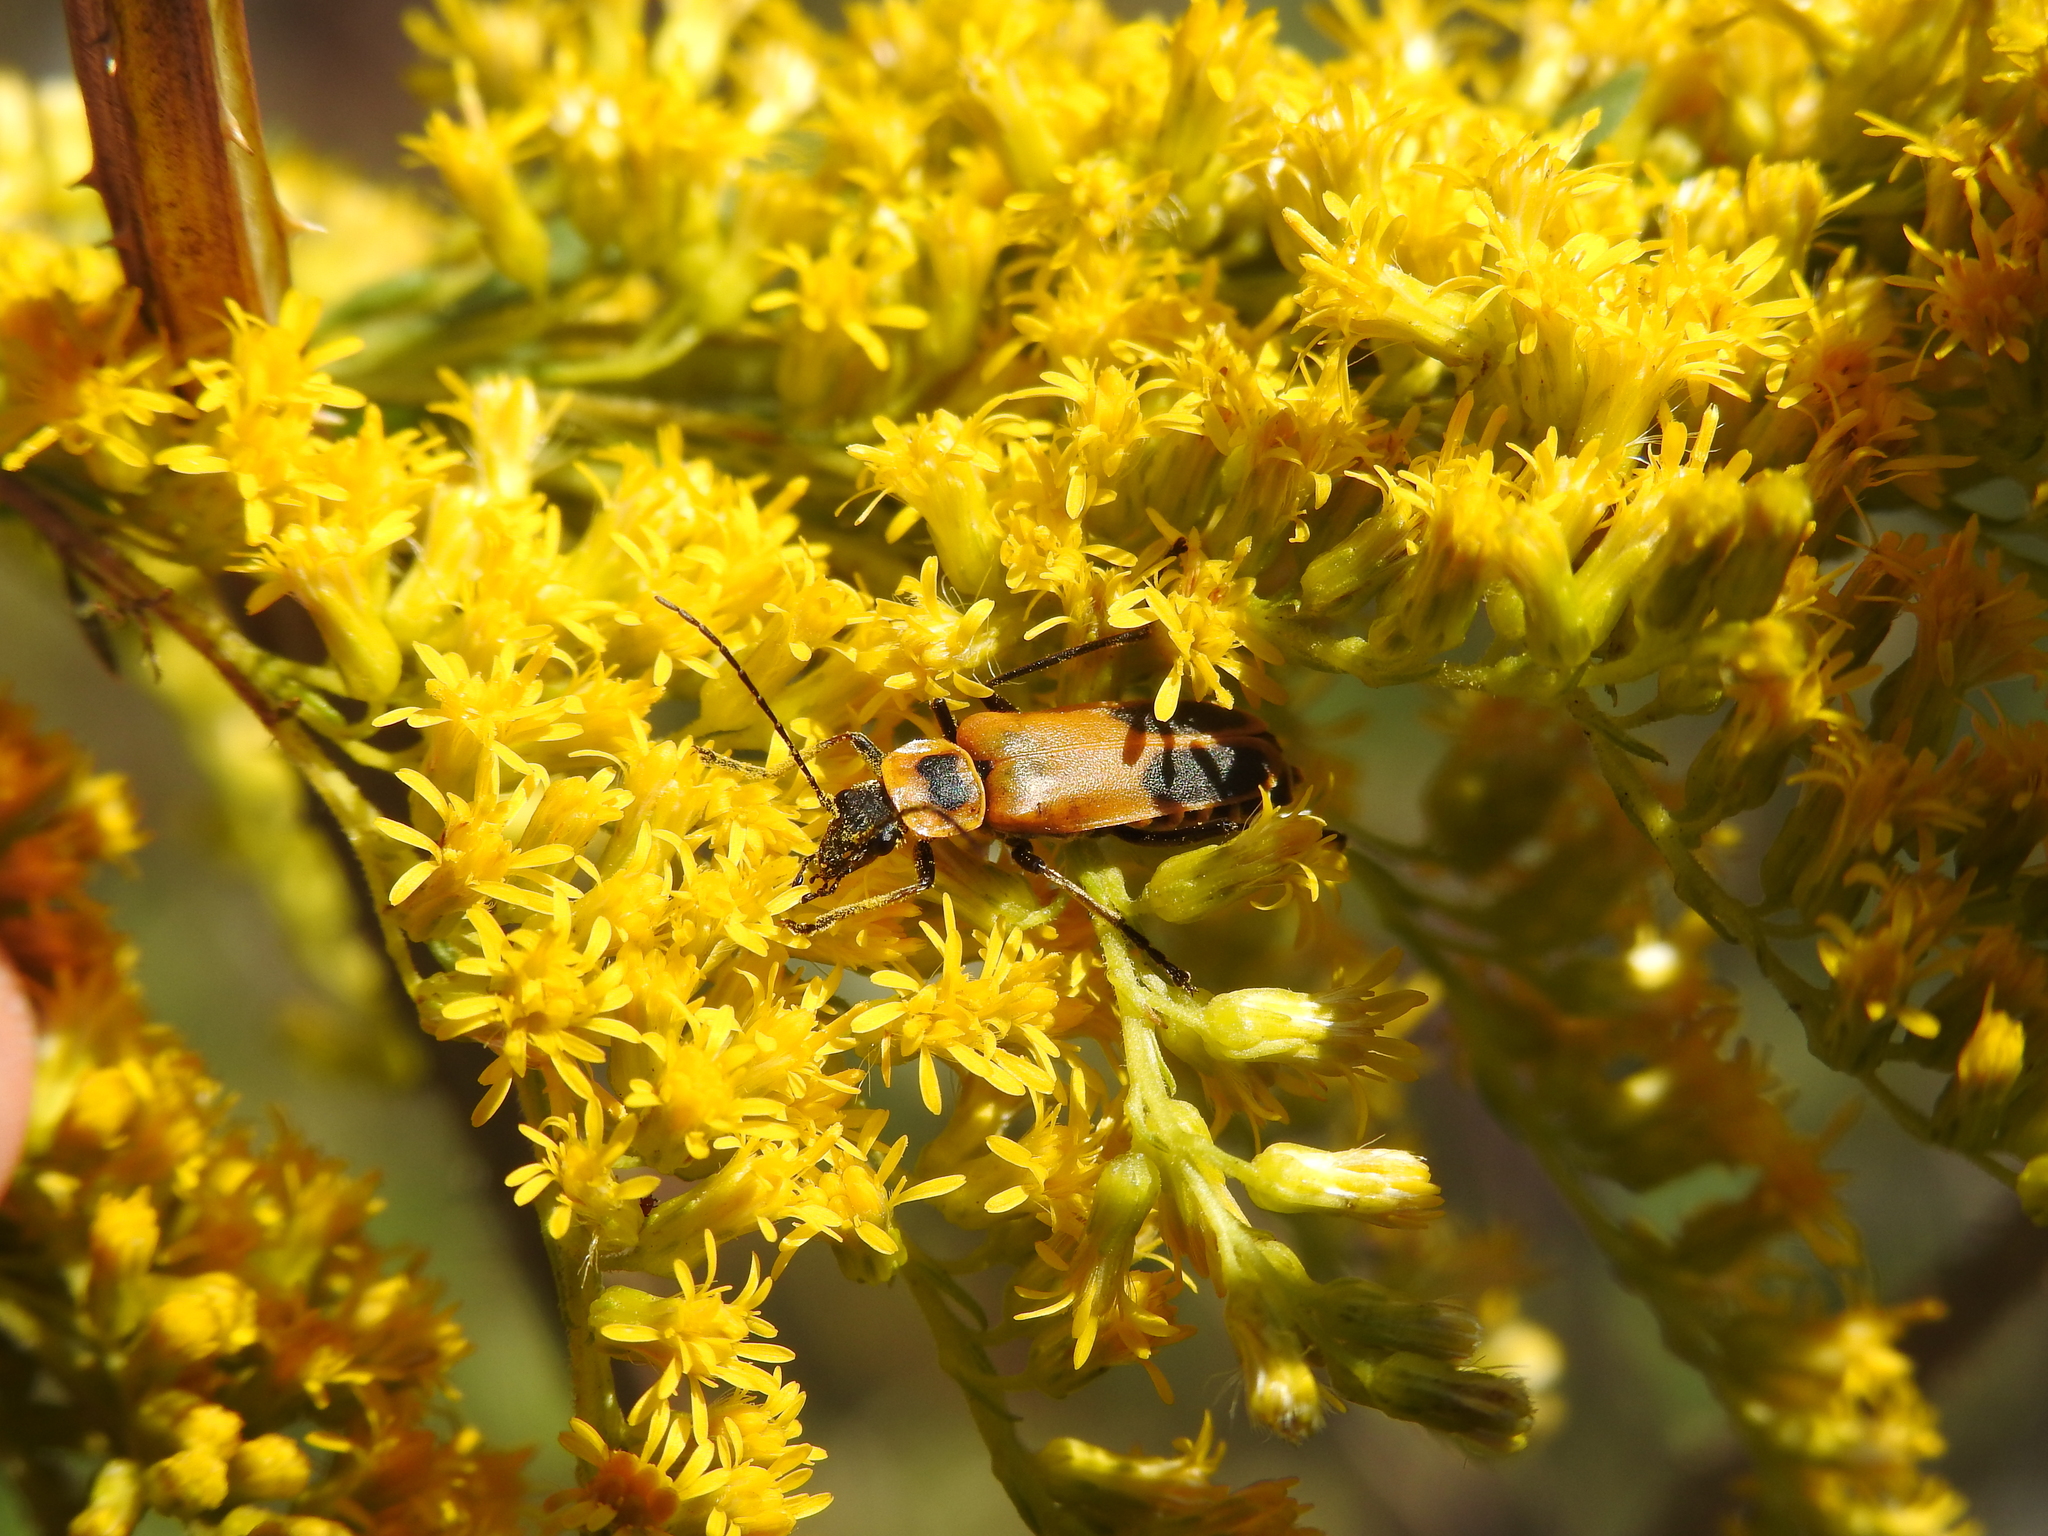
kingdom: Animalia
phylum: Arthropoda
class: Insecta
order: Coleoptera
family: Cantharidae
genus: Chauliognathus
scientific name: Chauliognathus pensylvanicus
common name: Goldenrod soldier beetle
